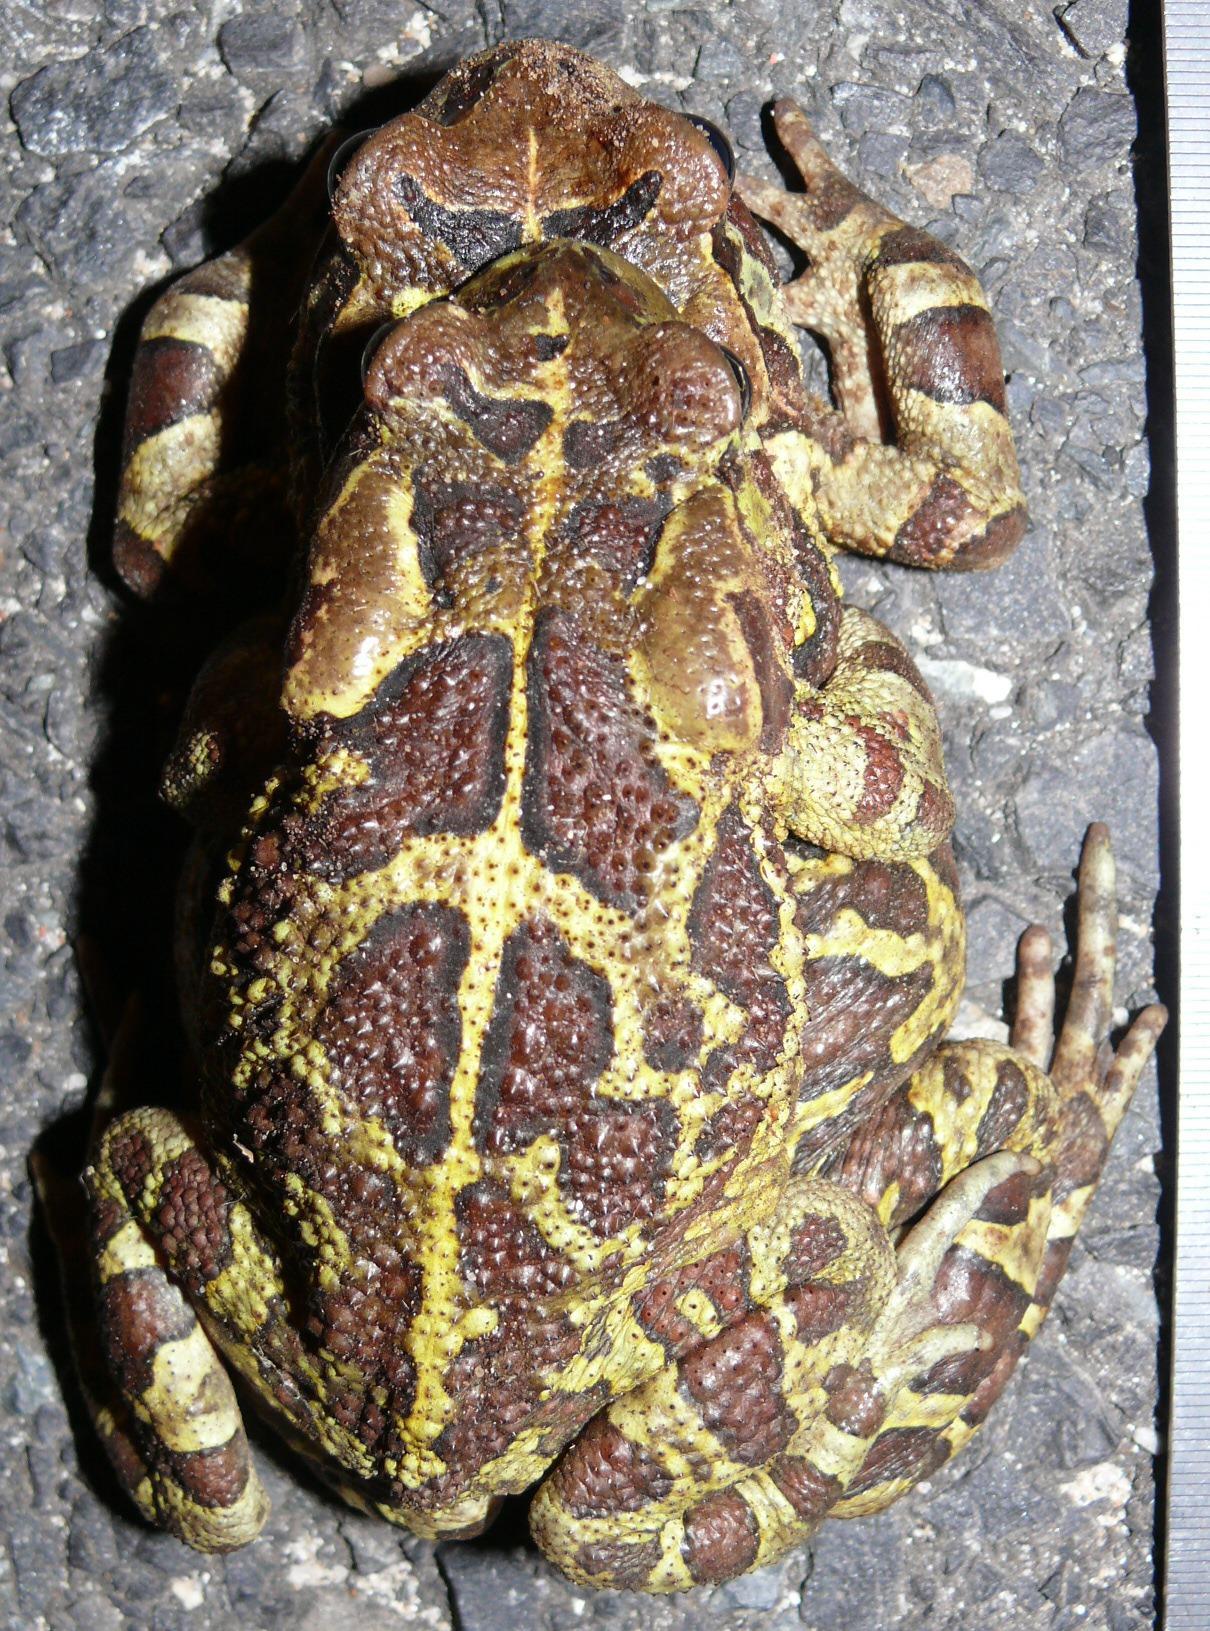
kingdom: Animalia
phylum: Chordata
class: Amphibia
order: Anura
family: Bufonidae
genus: Sclerophrys
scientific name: Sclerophrys pantherina
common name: Panther toad
